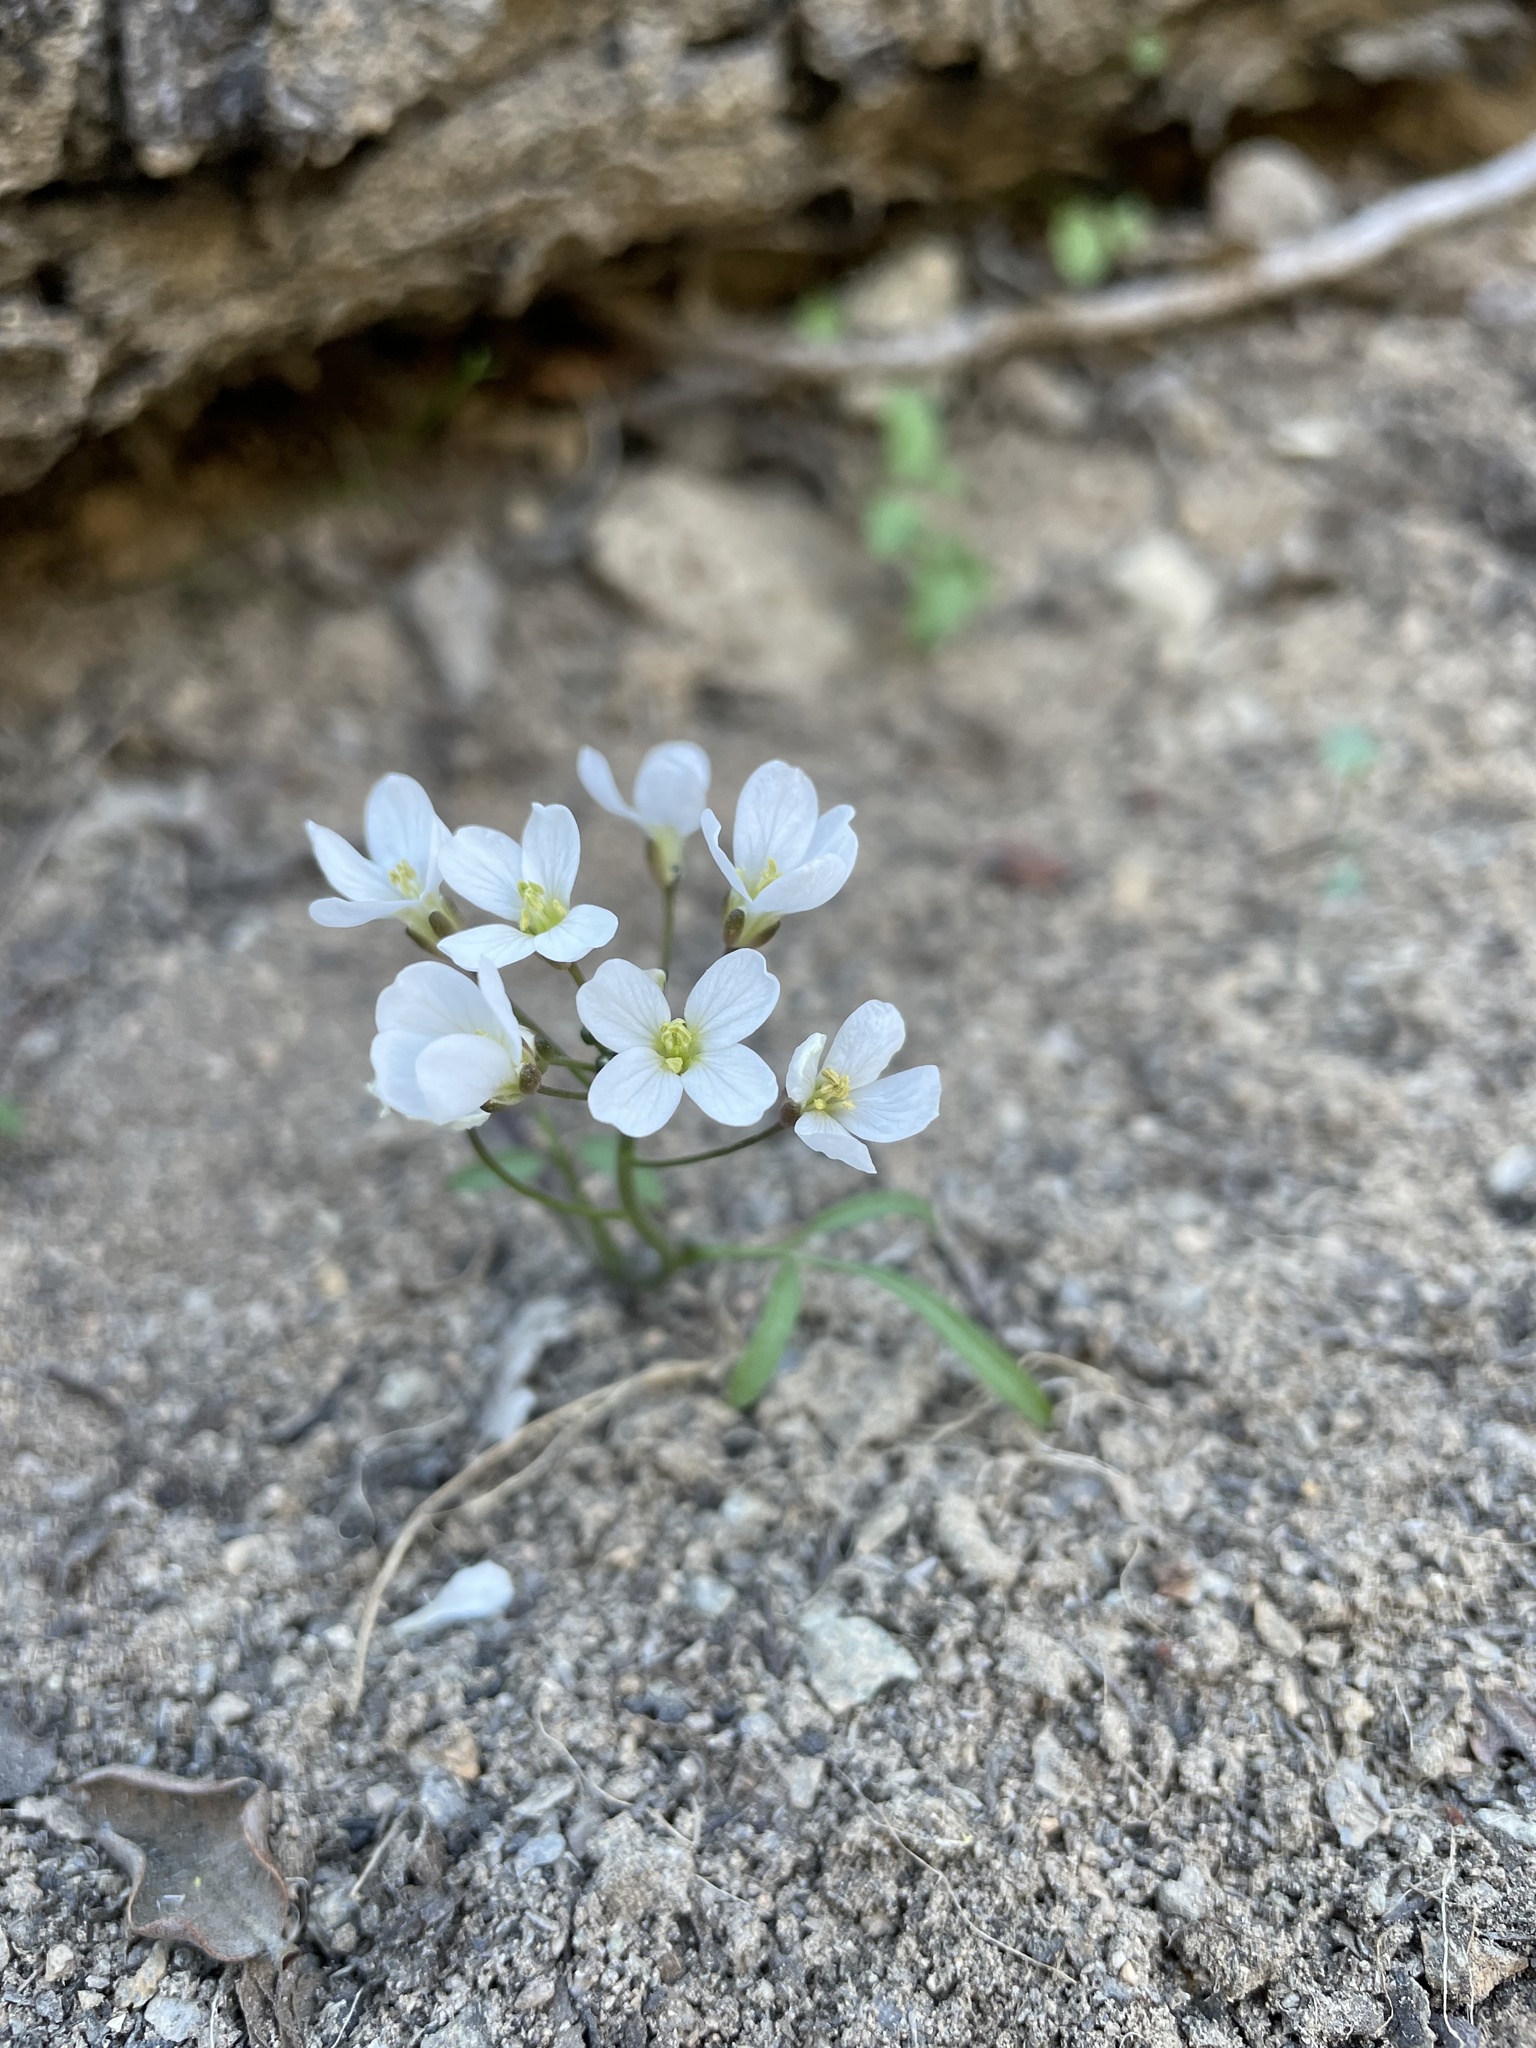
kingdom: Plantae
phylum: Tracheophyta
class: Magnoliopsida
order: Brassicales
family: Brassicaceae
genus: Cardamine
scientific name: Cardamine californica
